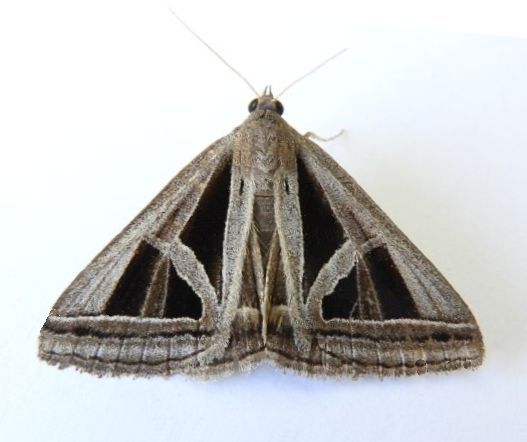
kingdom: Animalia
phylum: Arthropoda
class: Insecta
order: Lepidoptera
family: Erebidae
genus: Callistege
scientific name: Callistege triangula
